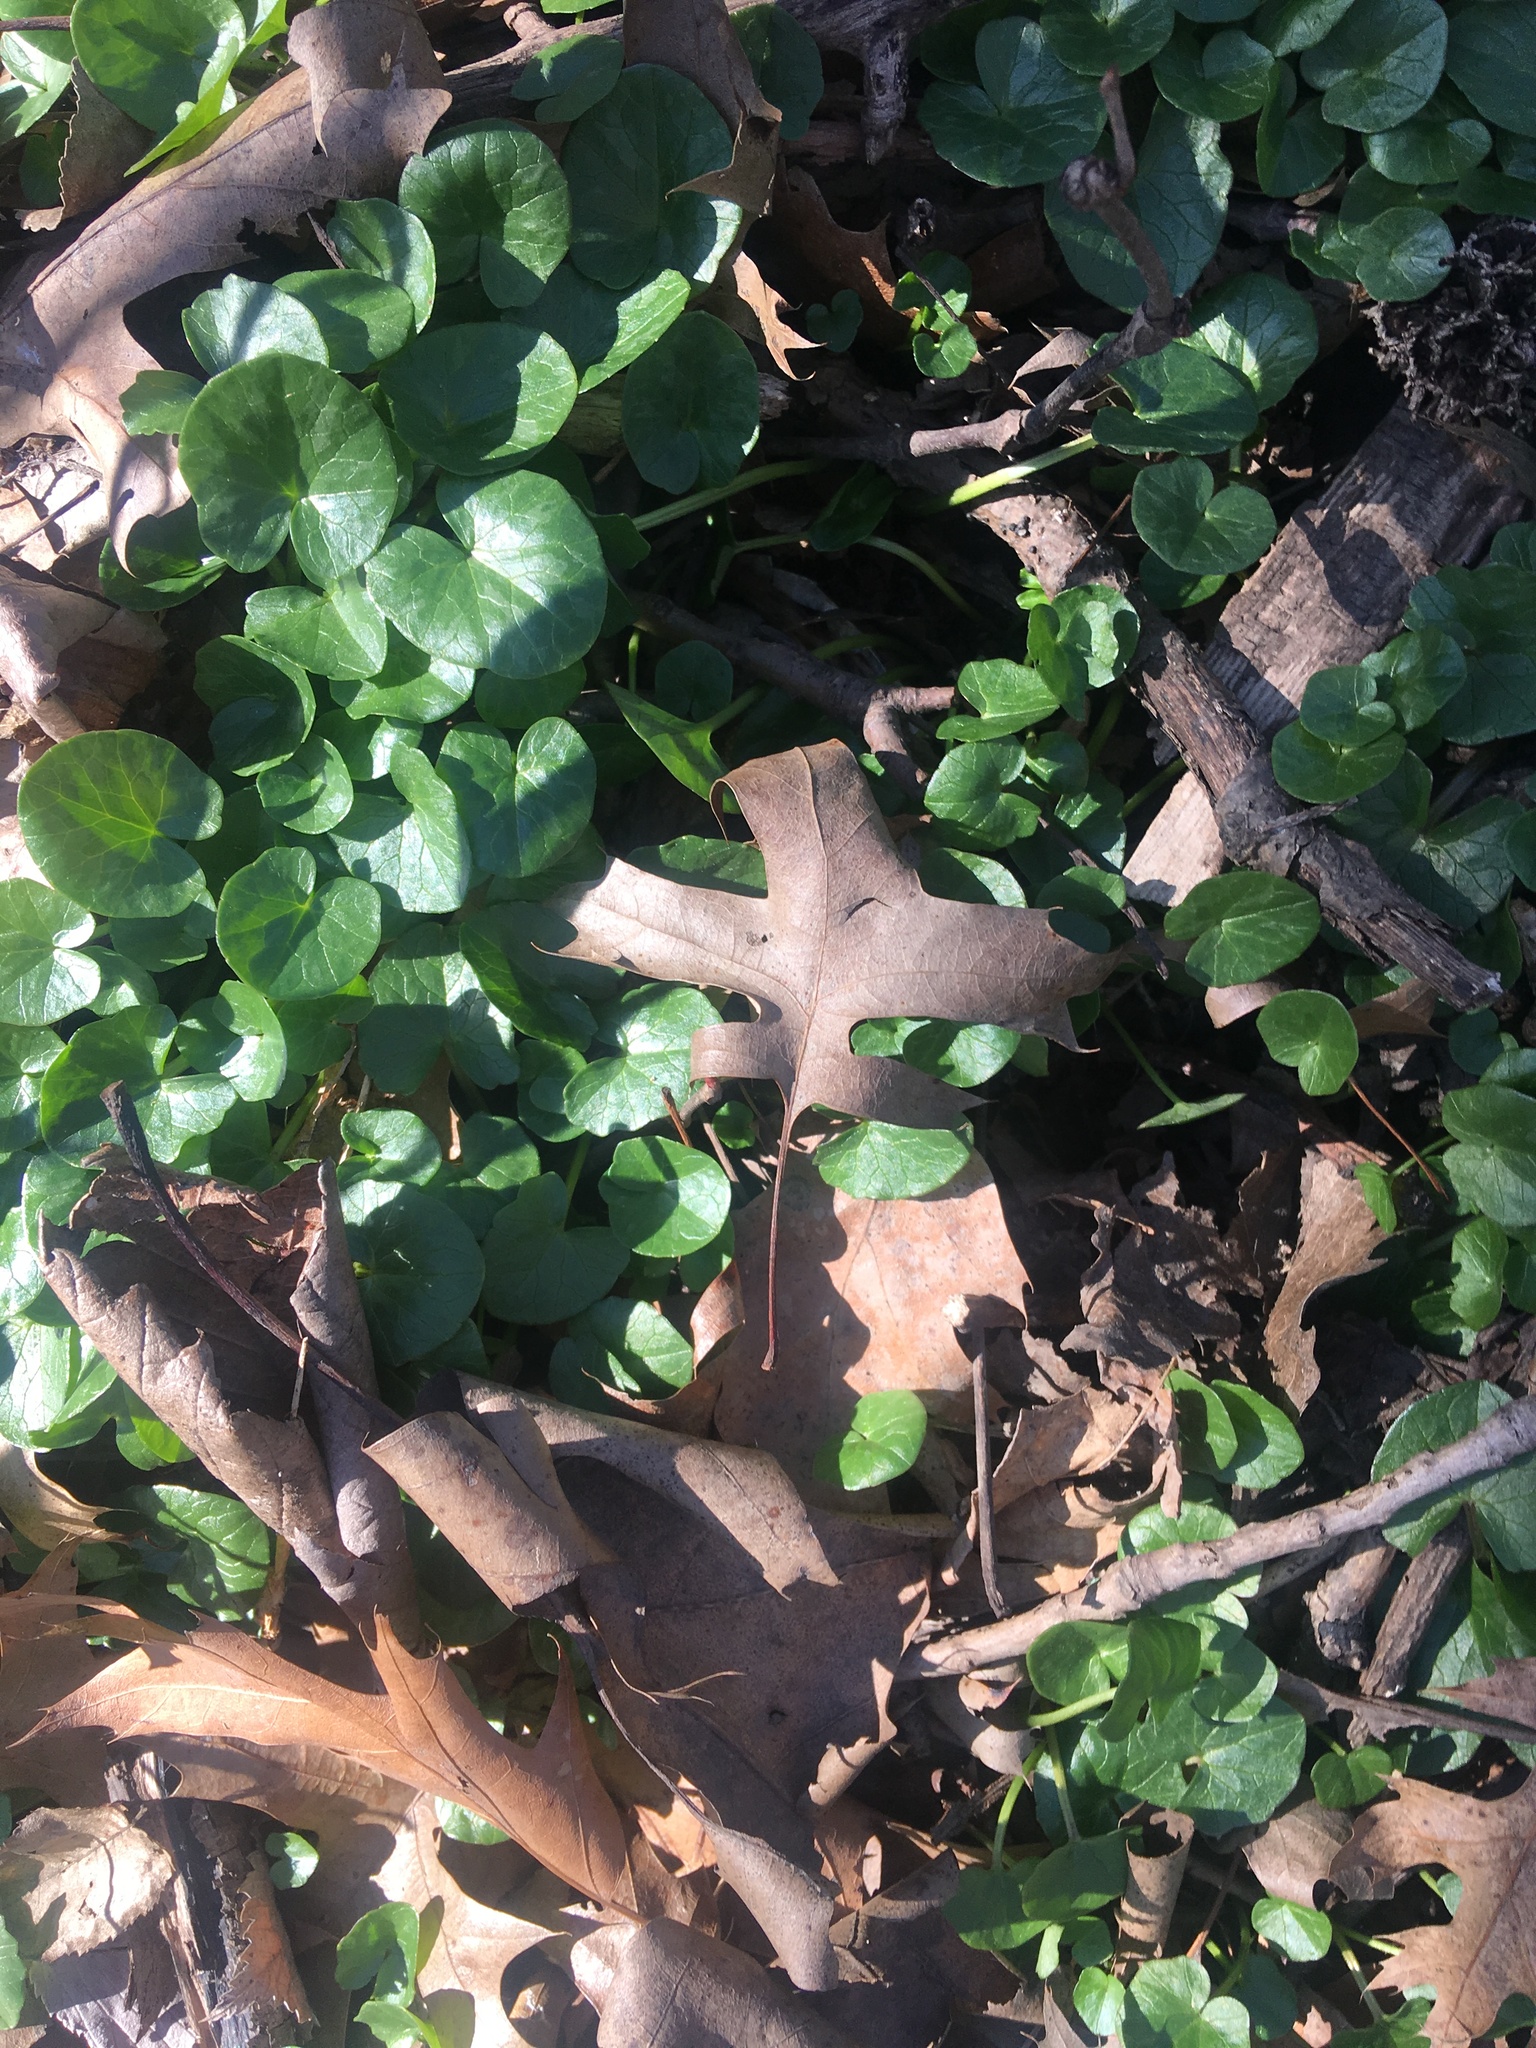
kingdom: Plantae
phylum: Tracheophyta
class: Magnoliopsida
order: Ranunculales
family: Ranunculaceae
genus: Ficaria
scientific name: Ficaria verna
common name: Lesser celandine
